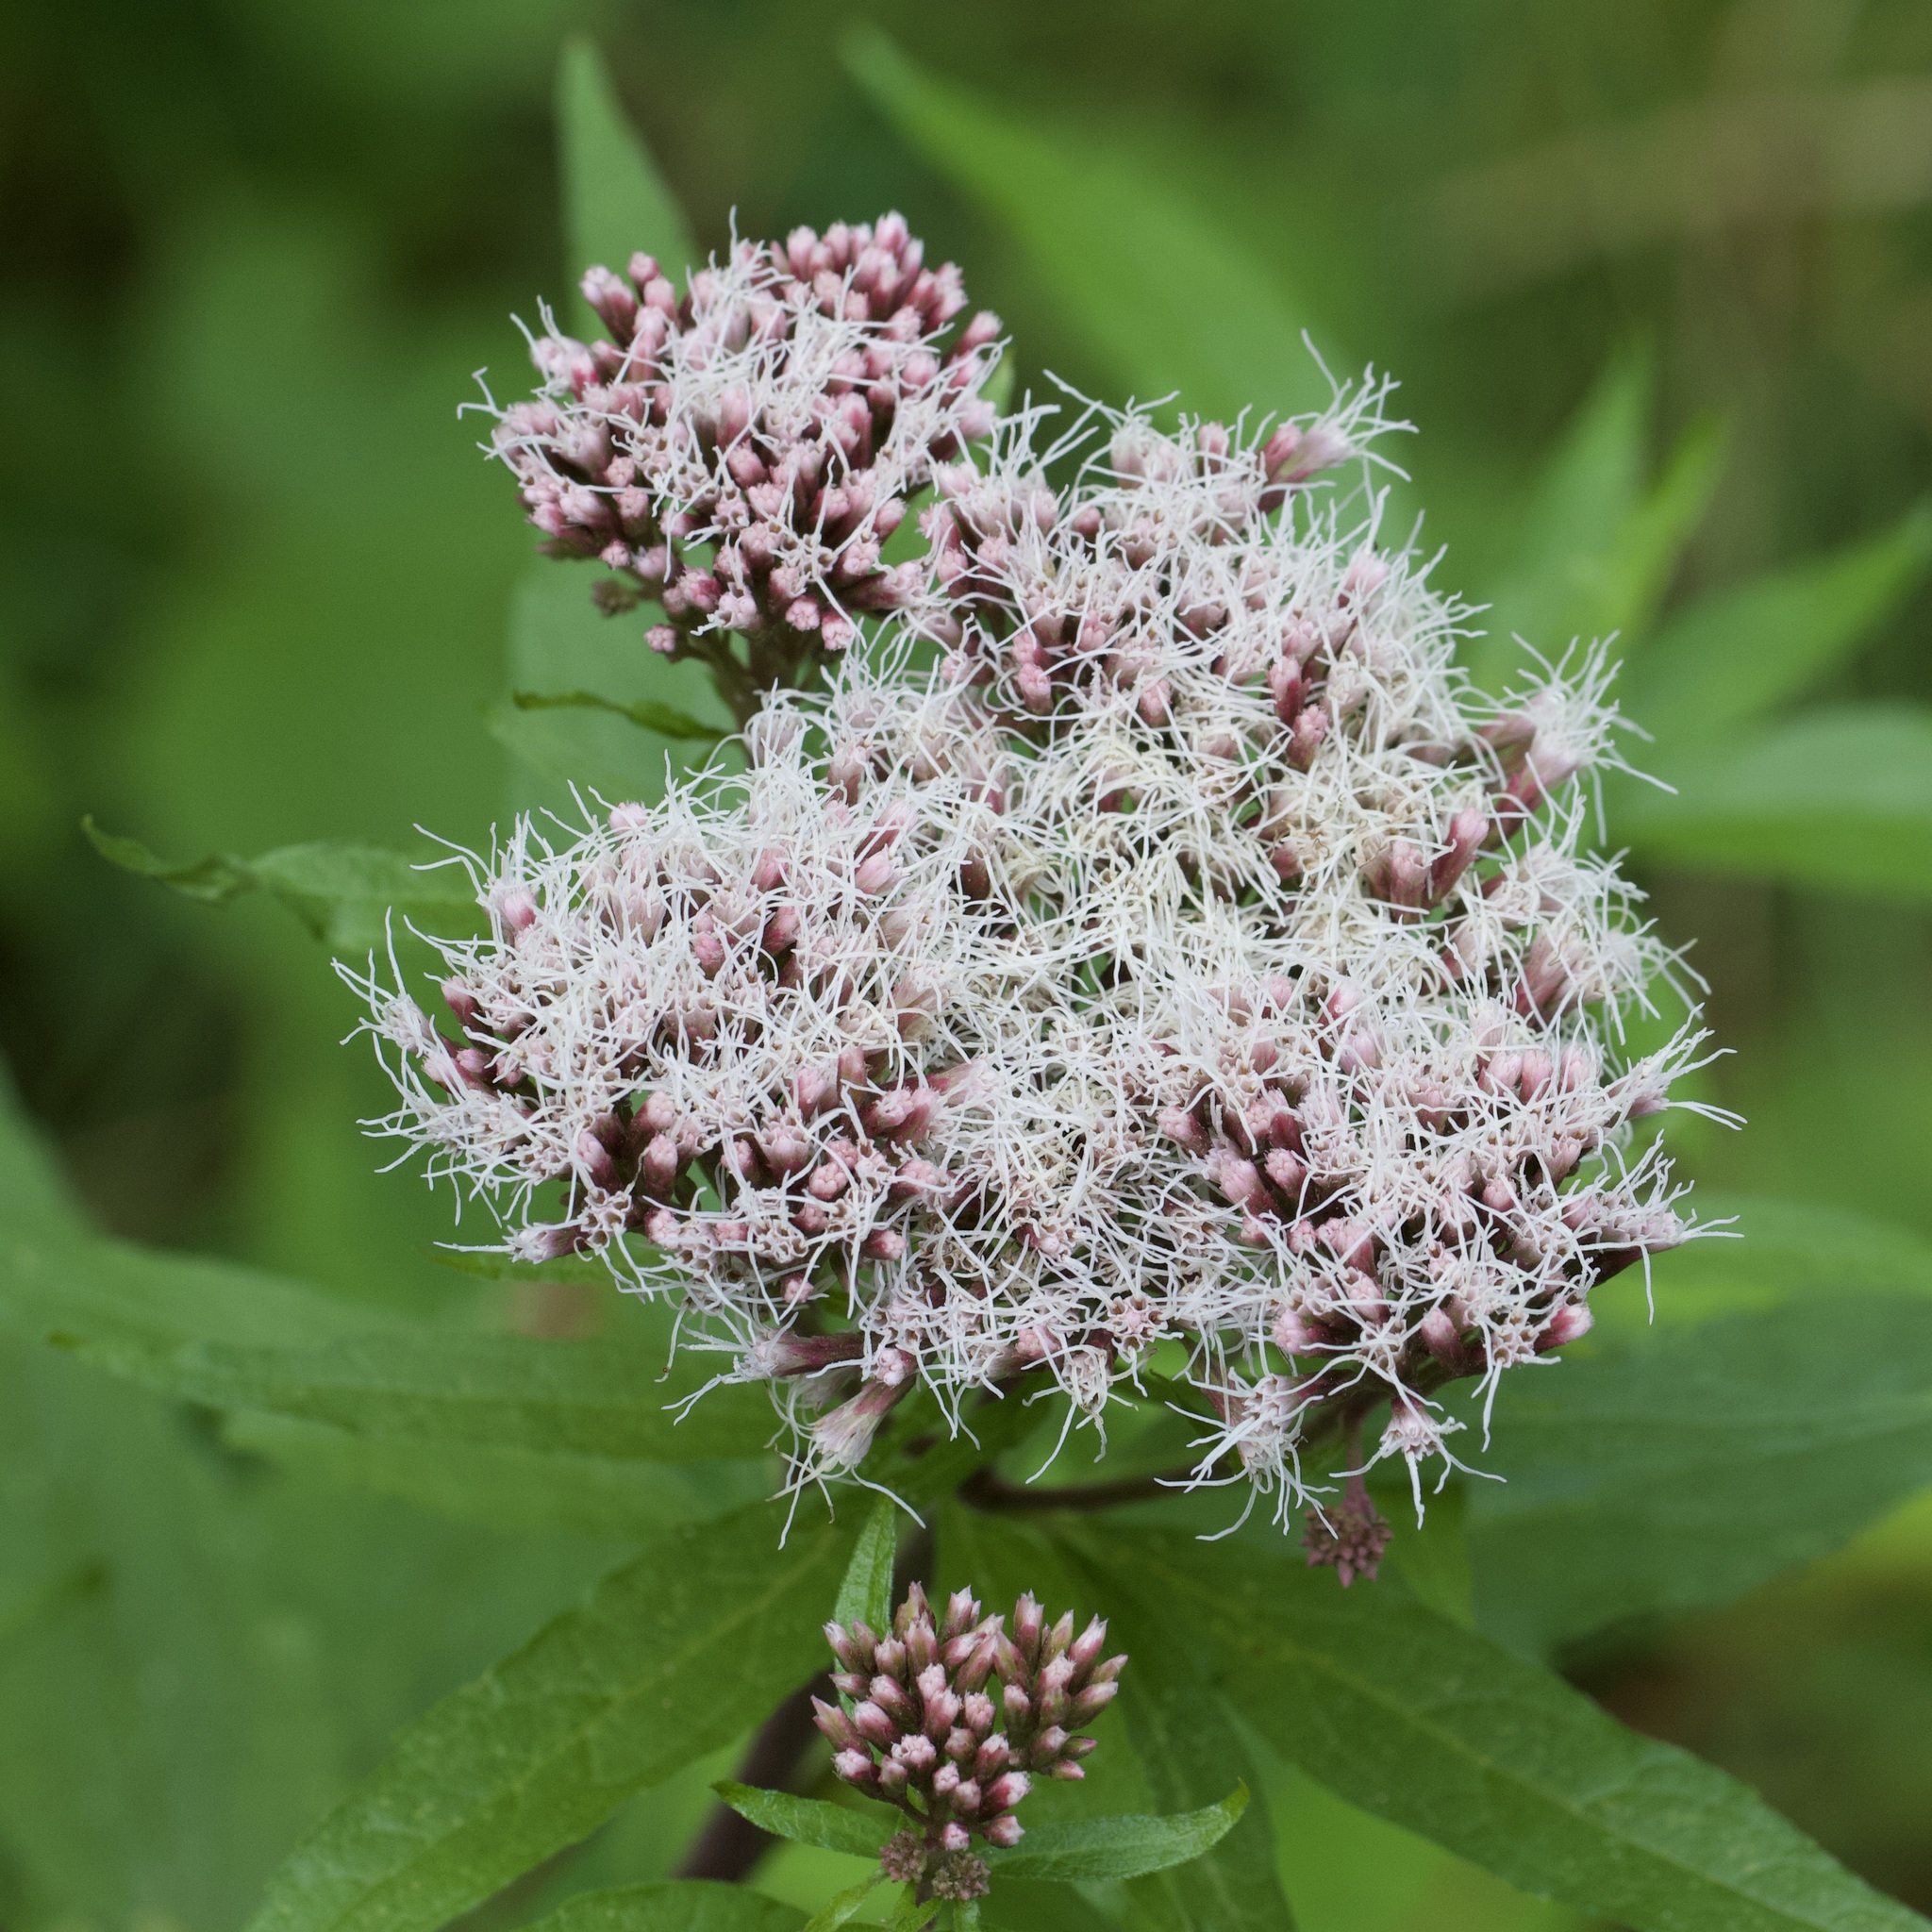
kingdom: Plantae
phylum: Tracheophyta
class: Magnoliopsida
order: Asterales
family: Asteraceae
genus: Eupatorium
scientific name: Eupatorium cannabinum
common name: Hemp-agrimony
